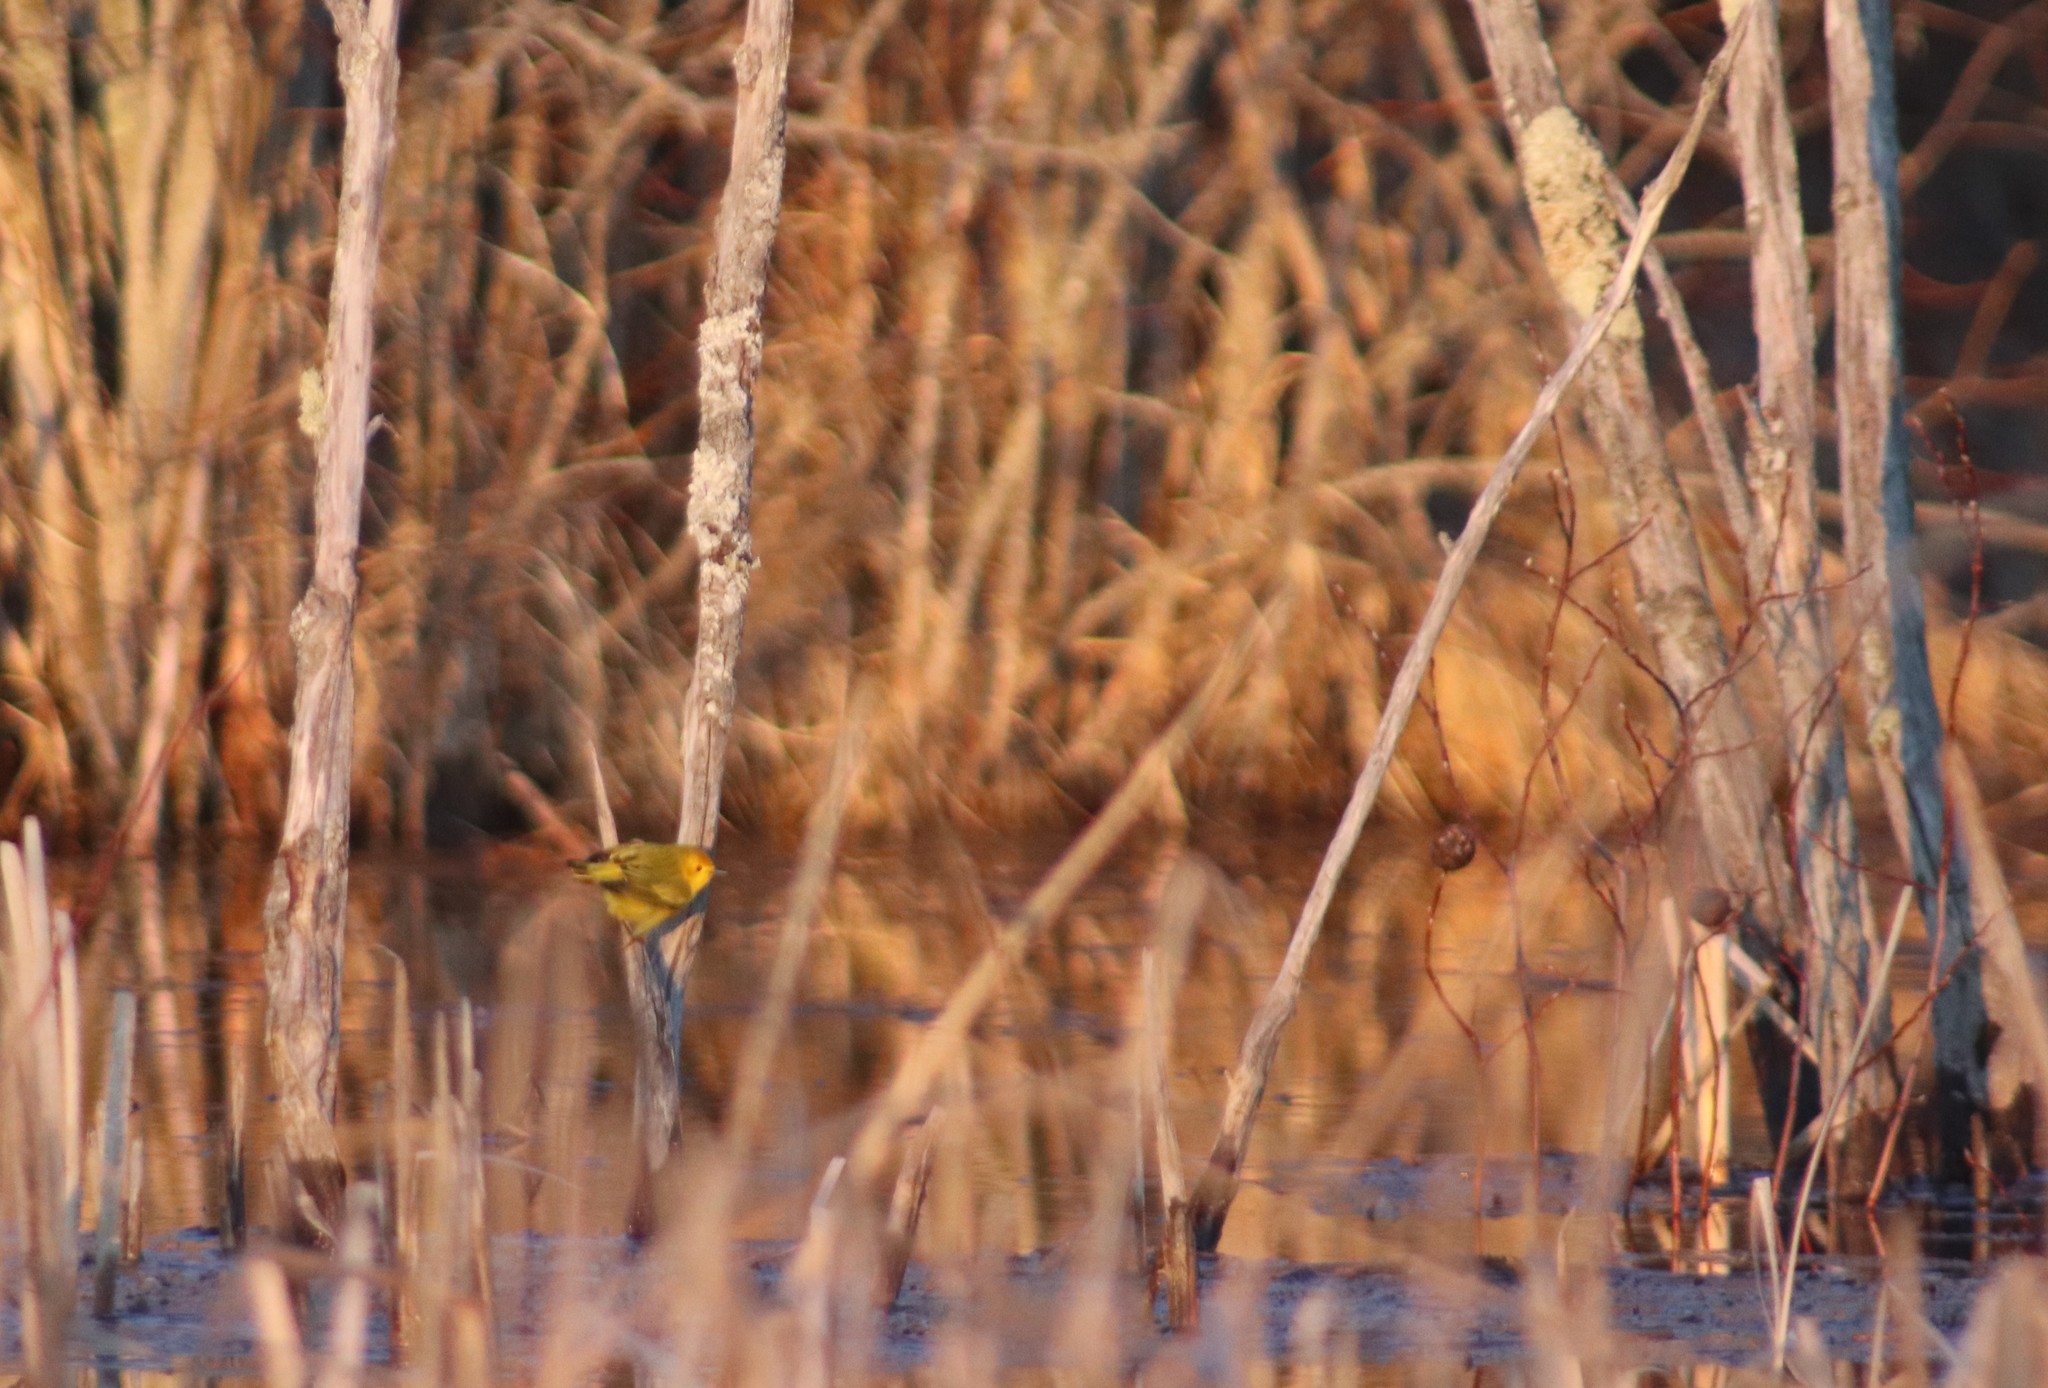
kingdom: Animalia
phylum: Chordata
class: Aves
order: Passeriformes
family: Parulidae
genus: Setophaga
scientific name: Setophaga petechia
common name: Yellow warbler
